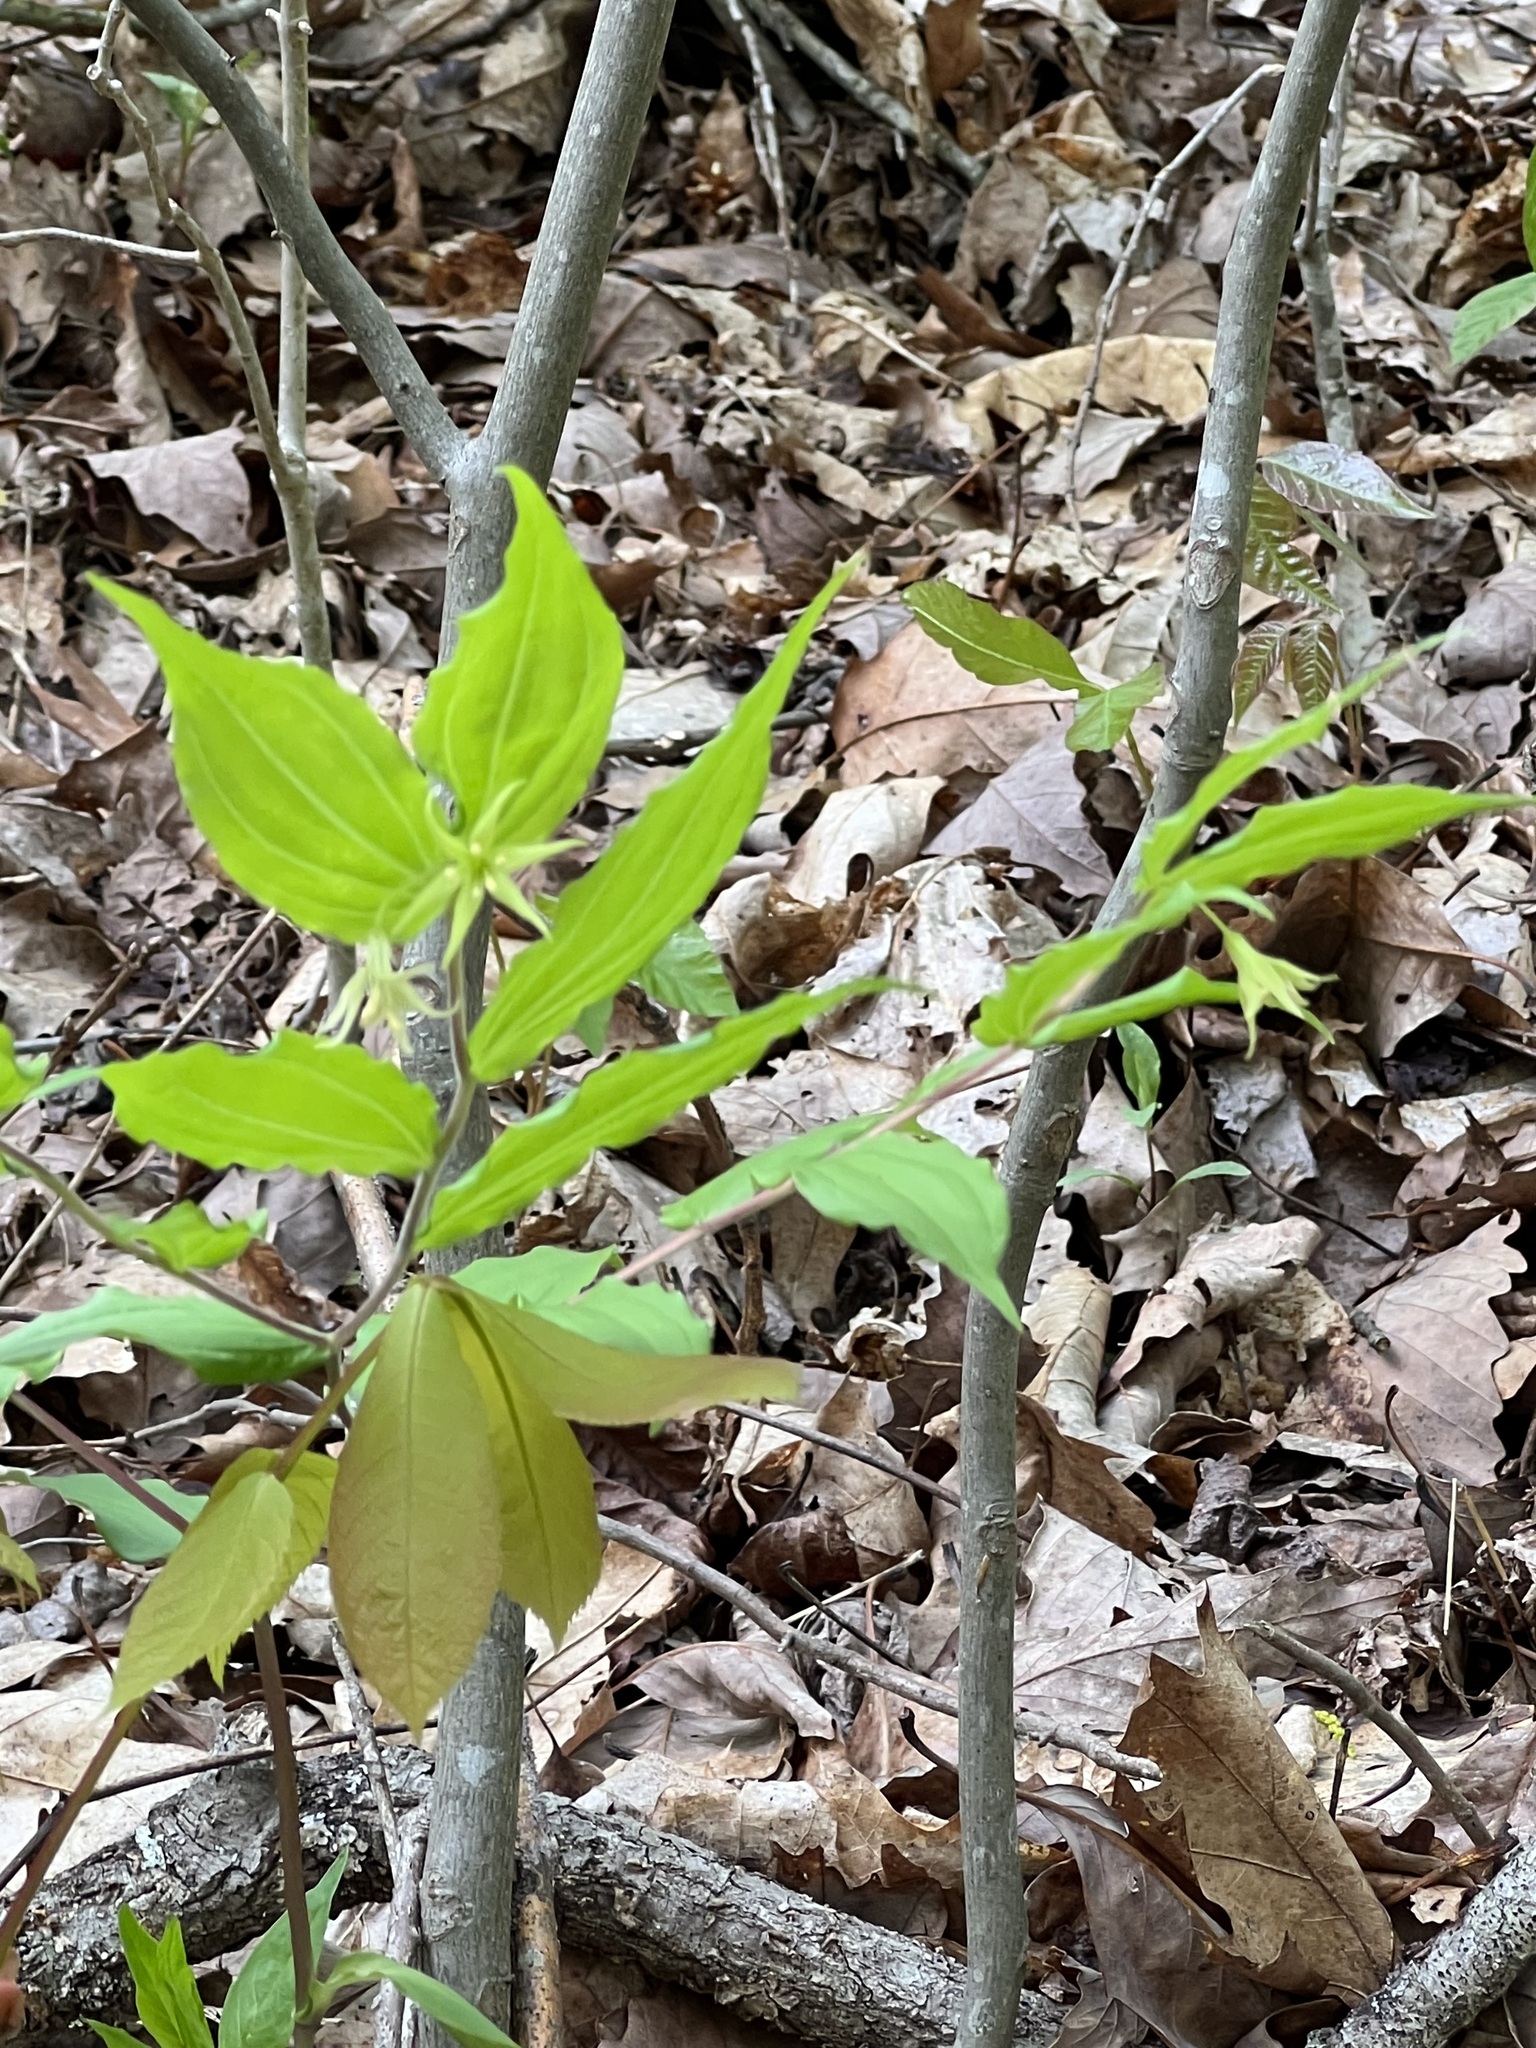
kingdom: Plantae
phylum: Tracheophyta
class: Liliopsida
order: Liliales
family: Liliaceae
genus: Prosartes
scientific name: Prosartes lanuginosa
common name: Hairy mandarin
